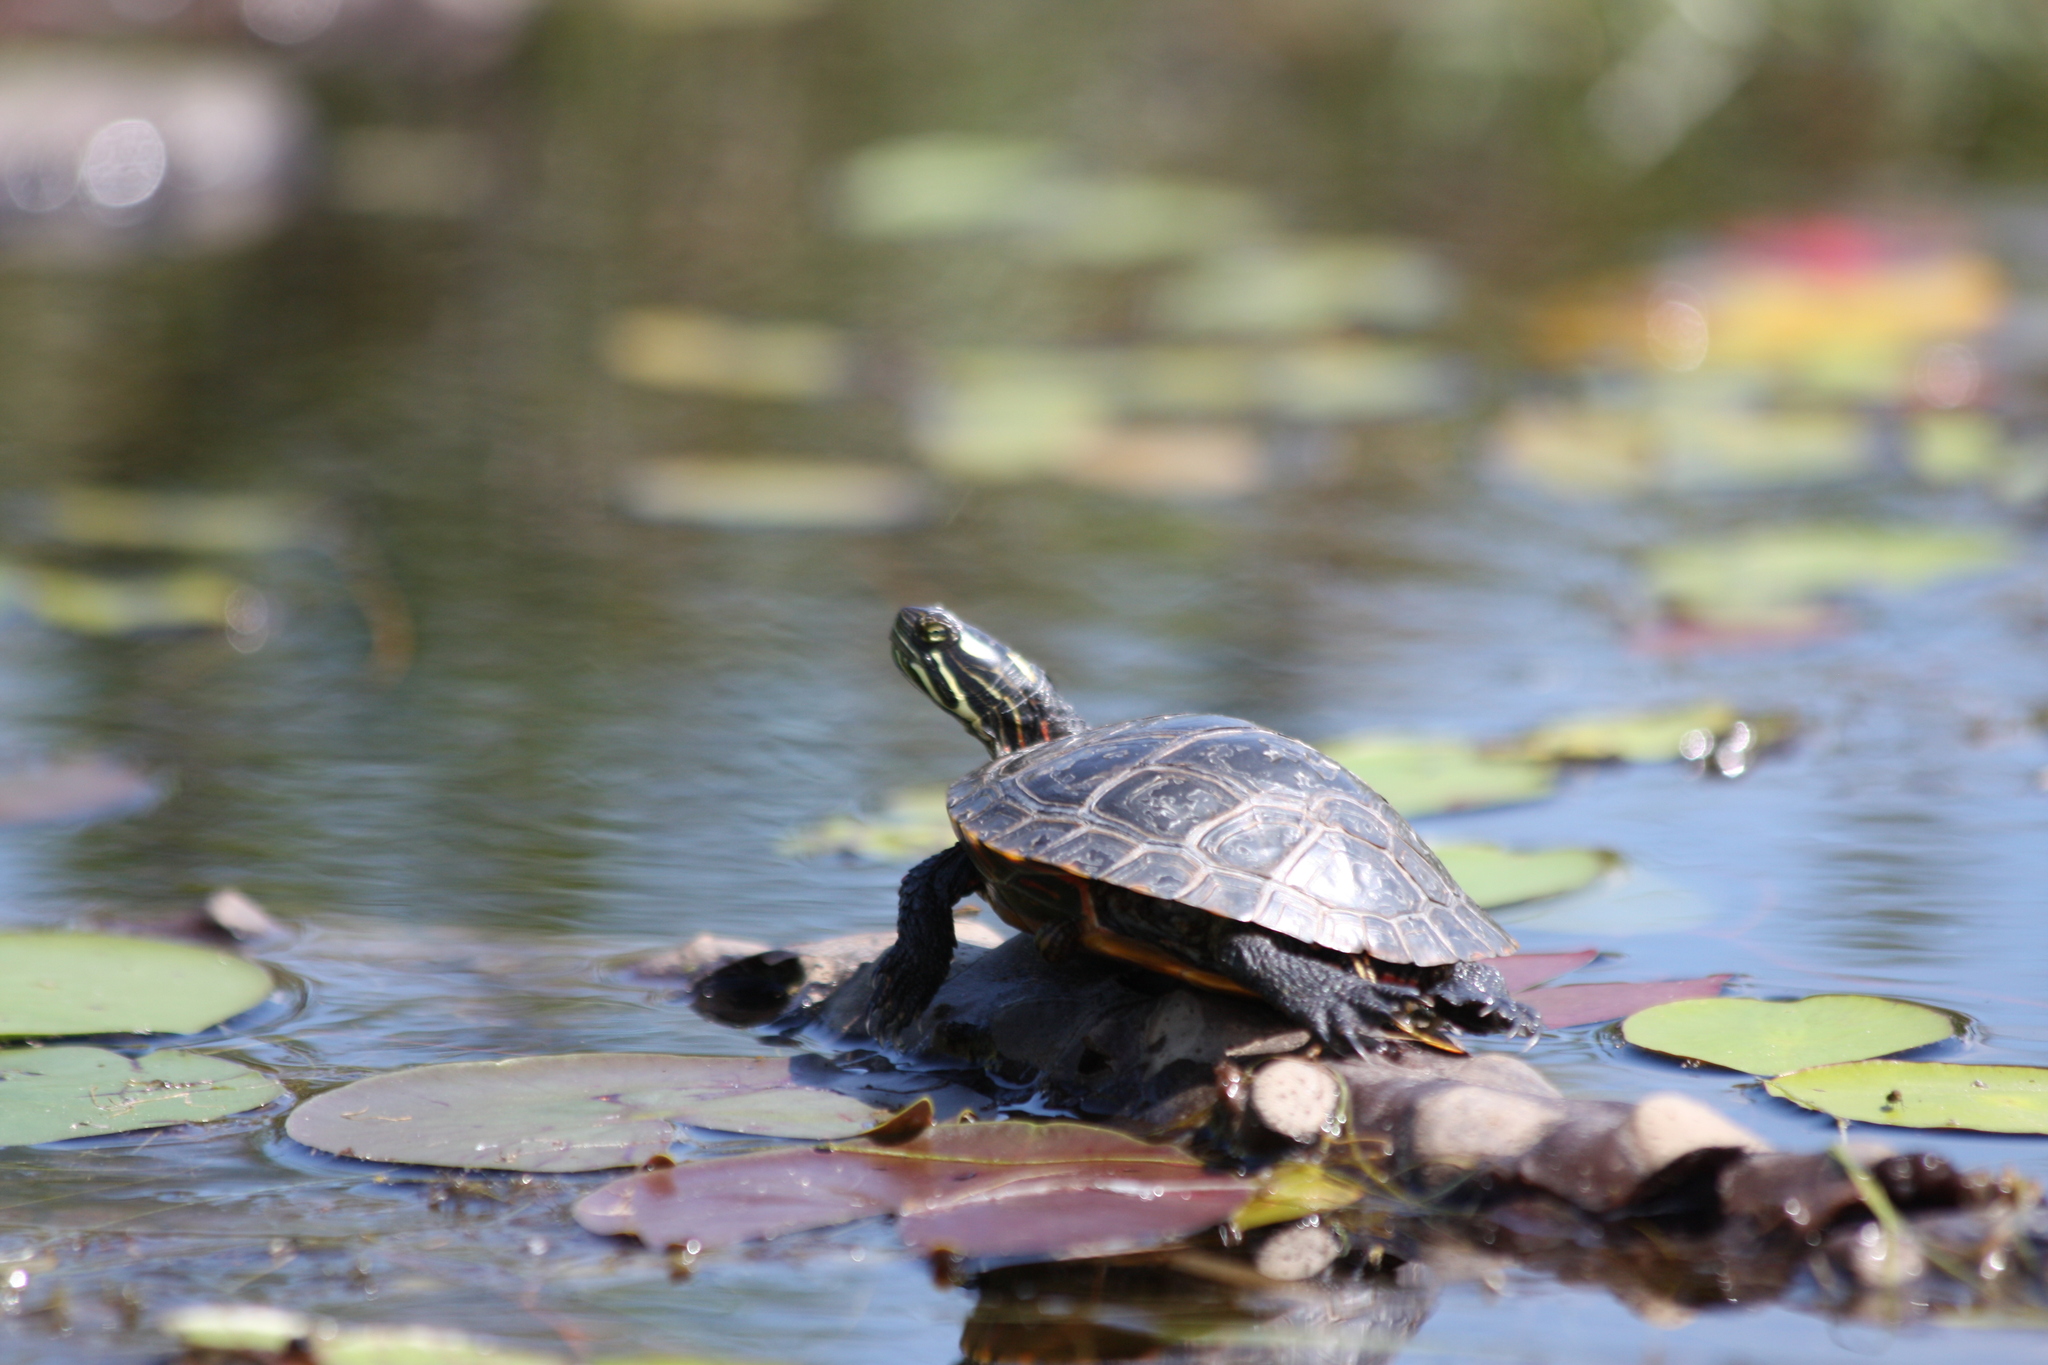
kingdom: Animalia
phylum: Chordata
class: Testudines
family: Emydidae
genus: Chrysemys
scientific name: Chrysemys picta
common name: Painted turtle
